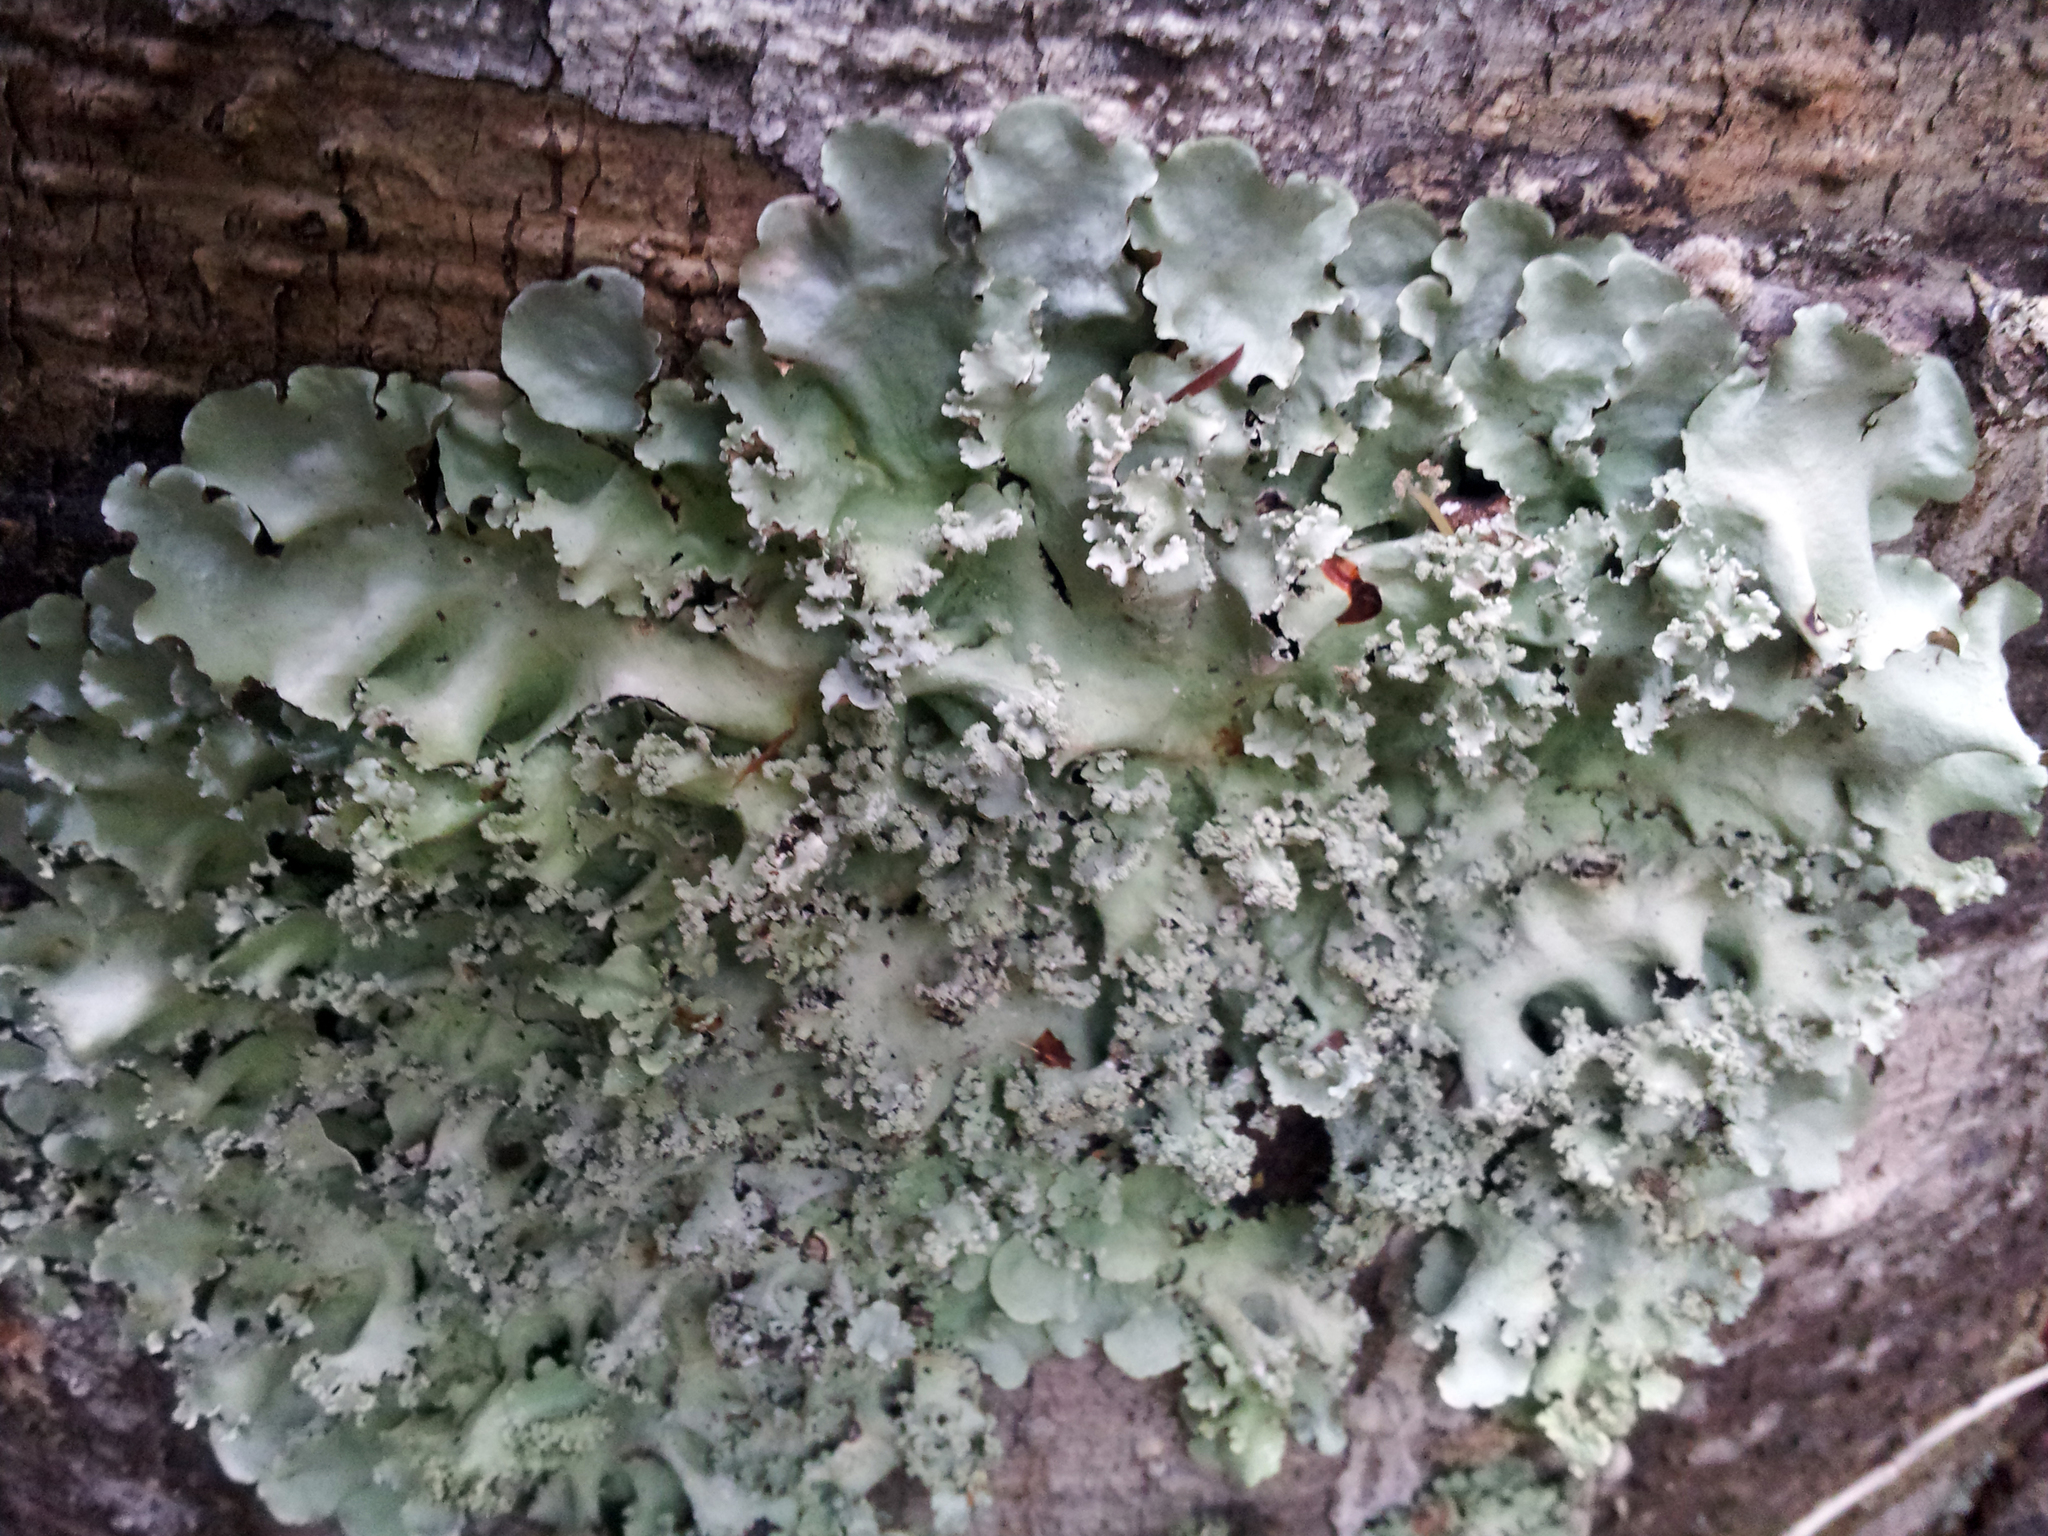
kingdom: Fungi
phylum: Ascomycota
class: Lecanoromycetes
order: Lecanorales
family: Parmeliaceae
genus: Parmotrema
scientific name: Parmotrema robustum
